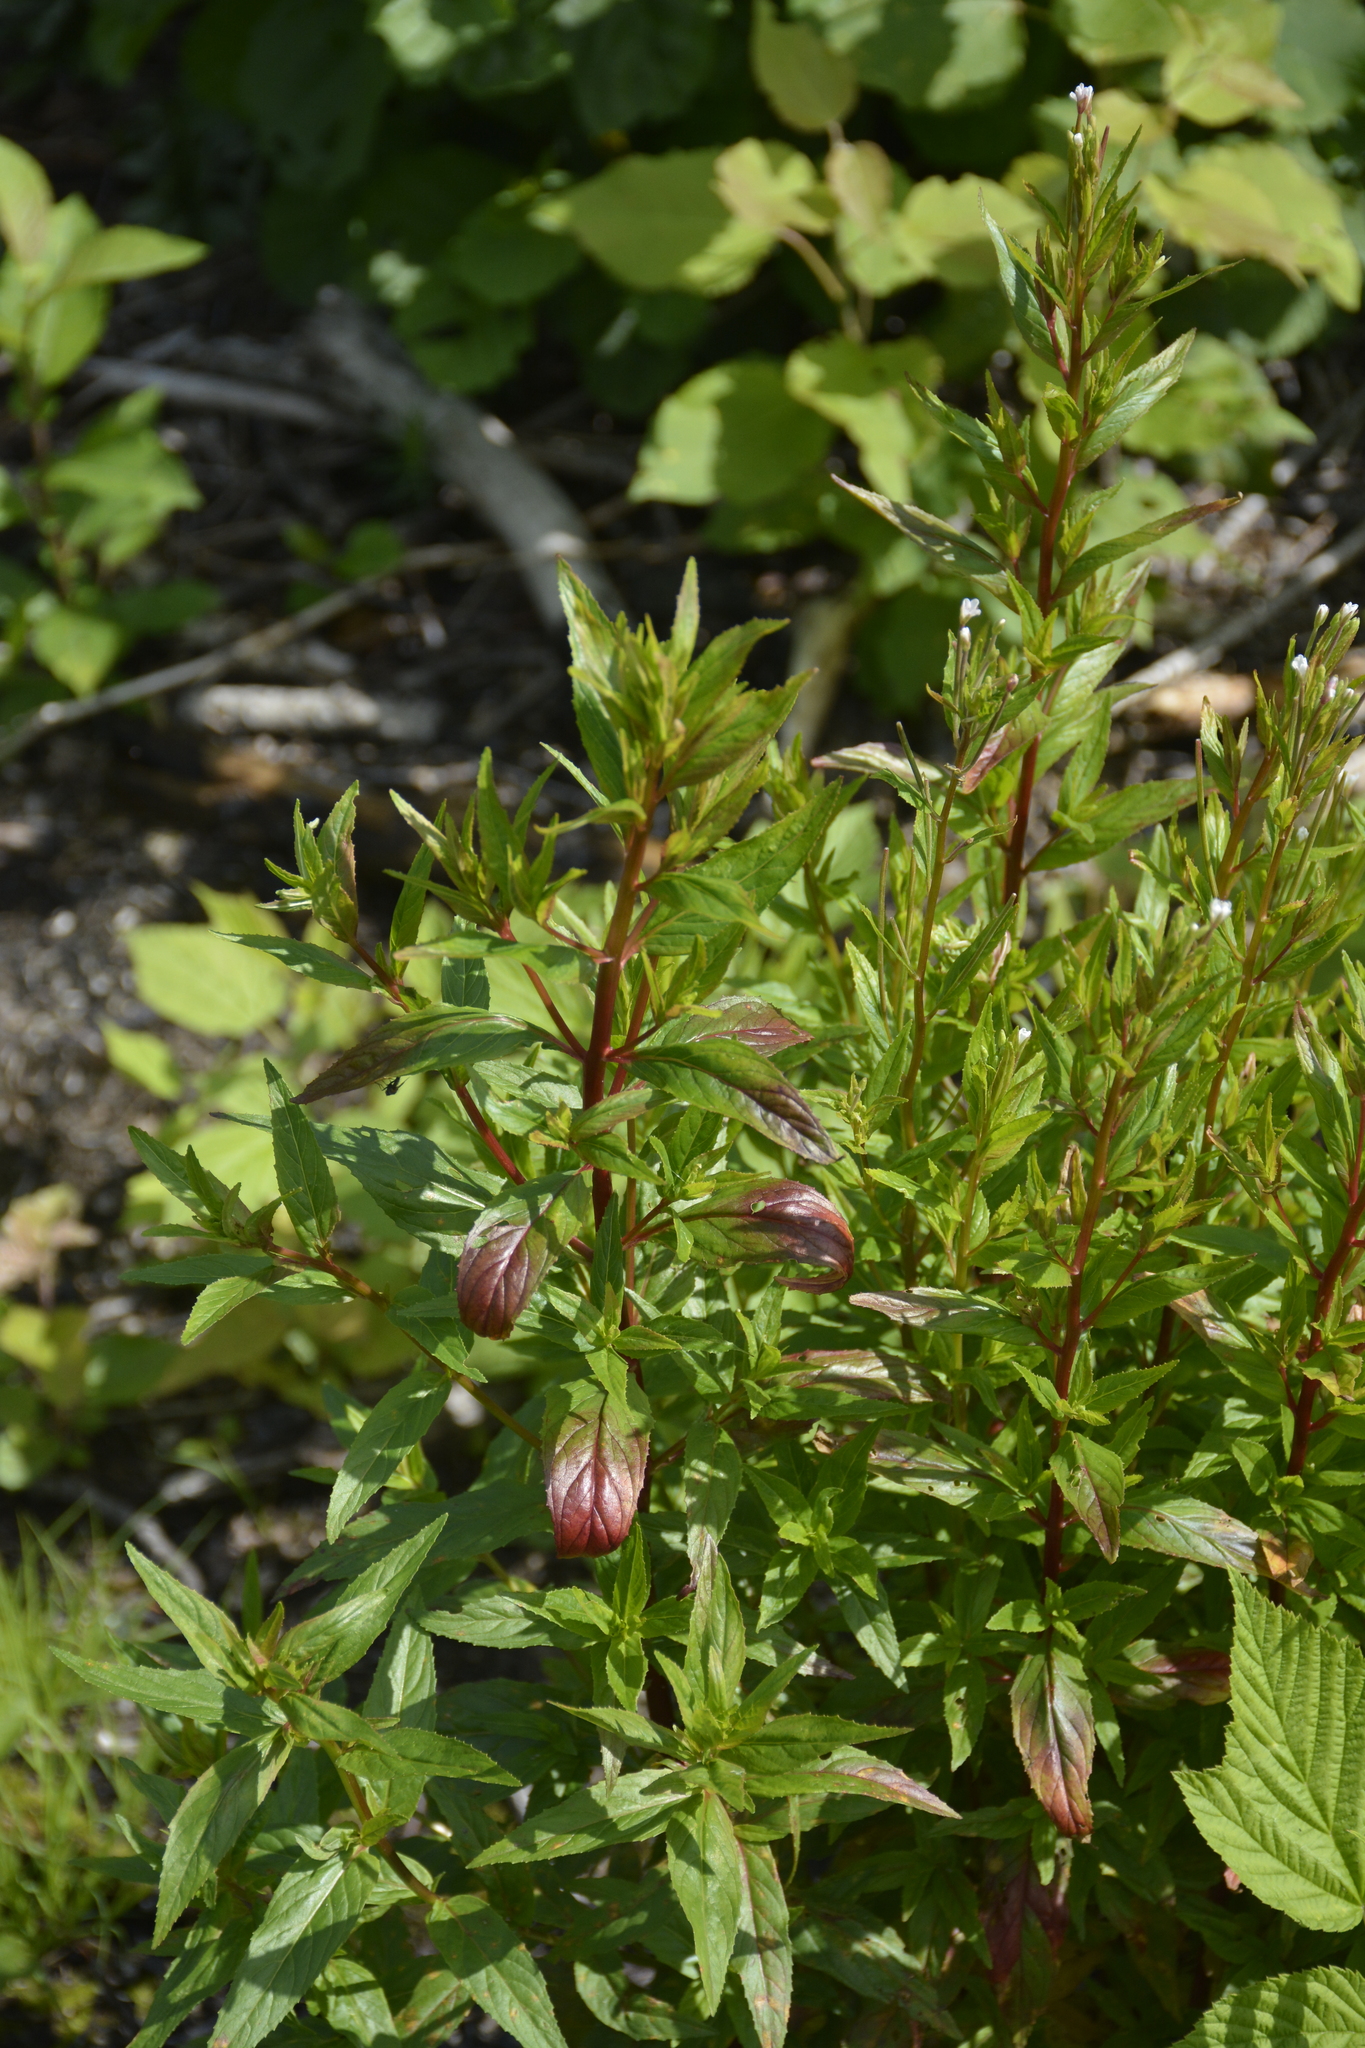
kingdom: Plantae
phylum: Tracheophyta
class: Magnoliopsida
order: Myrtales
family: Onagraceae
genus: Epilobium
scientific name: Epilobium pseudorubescens
